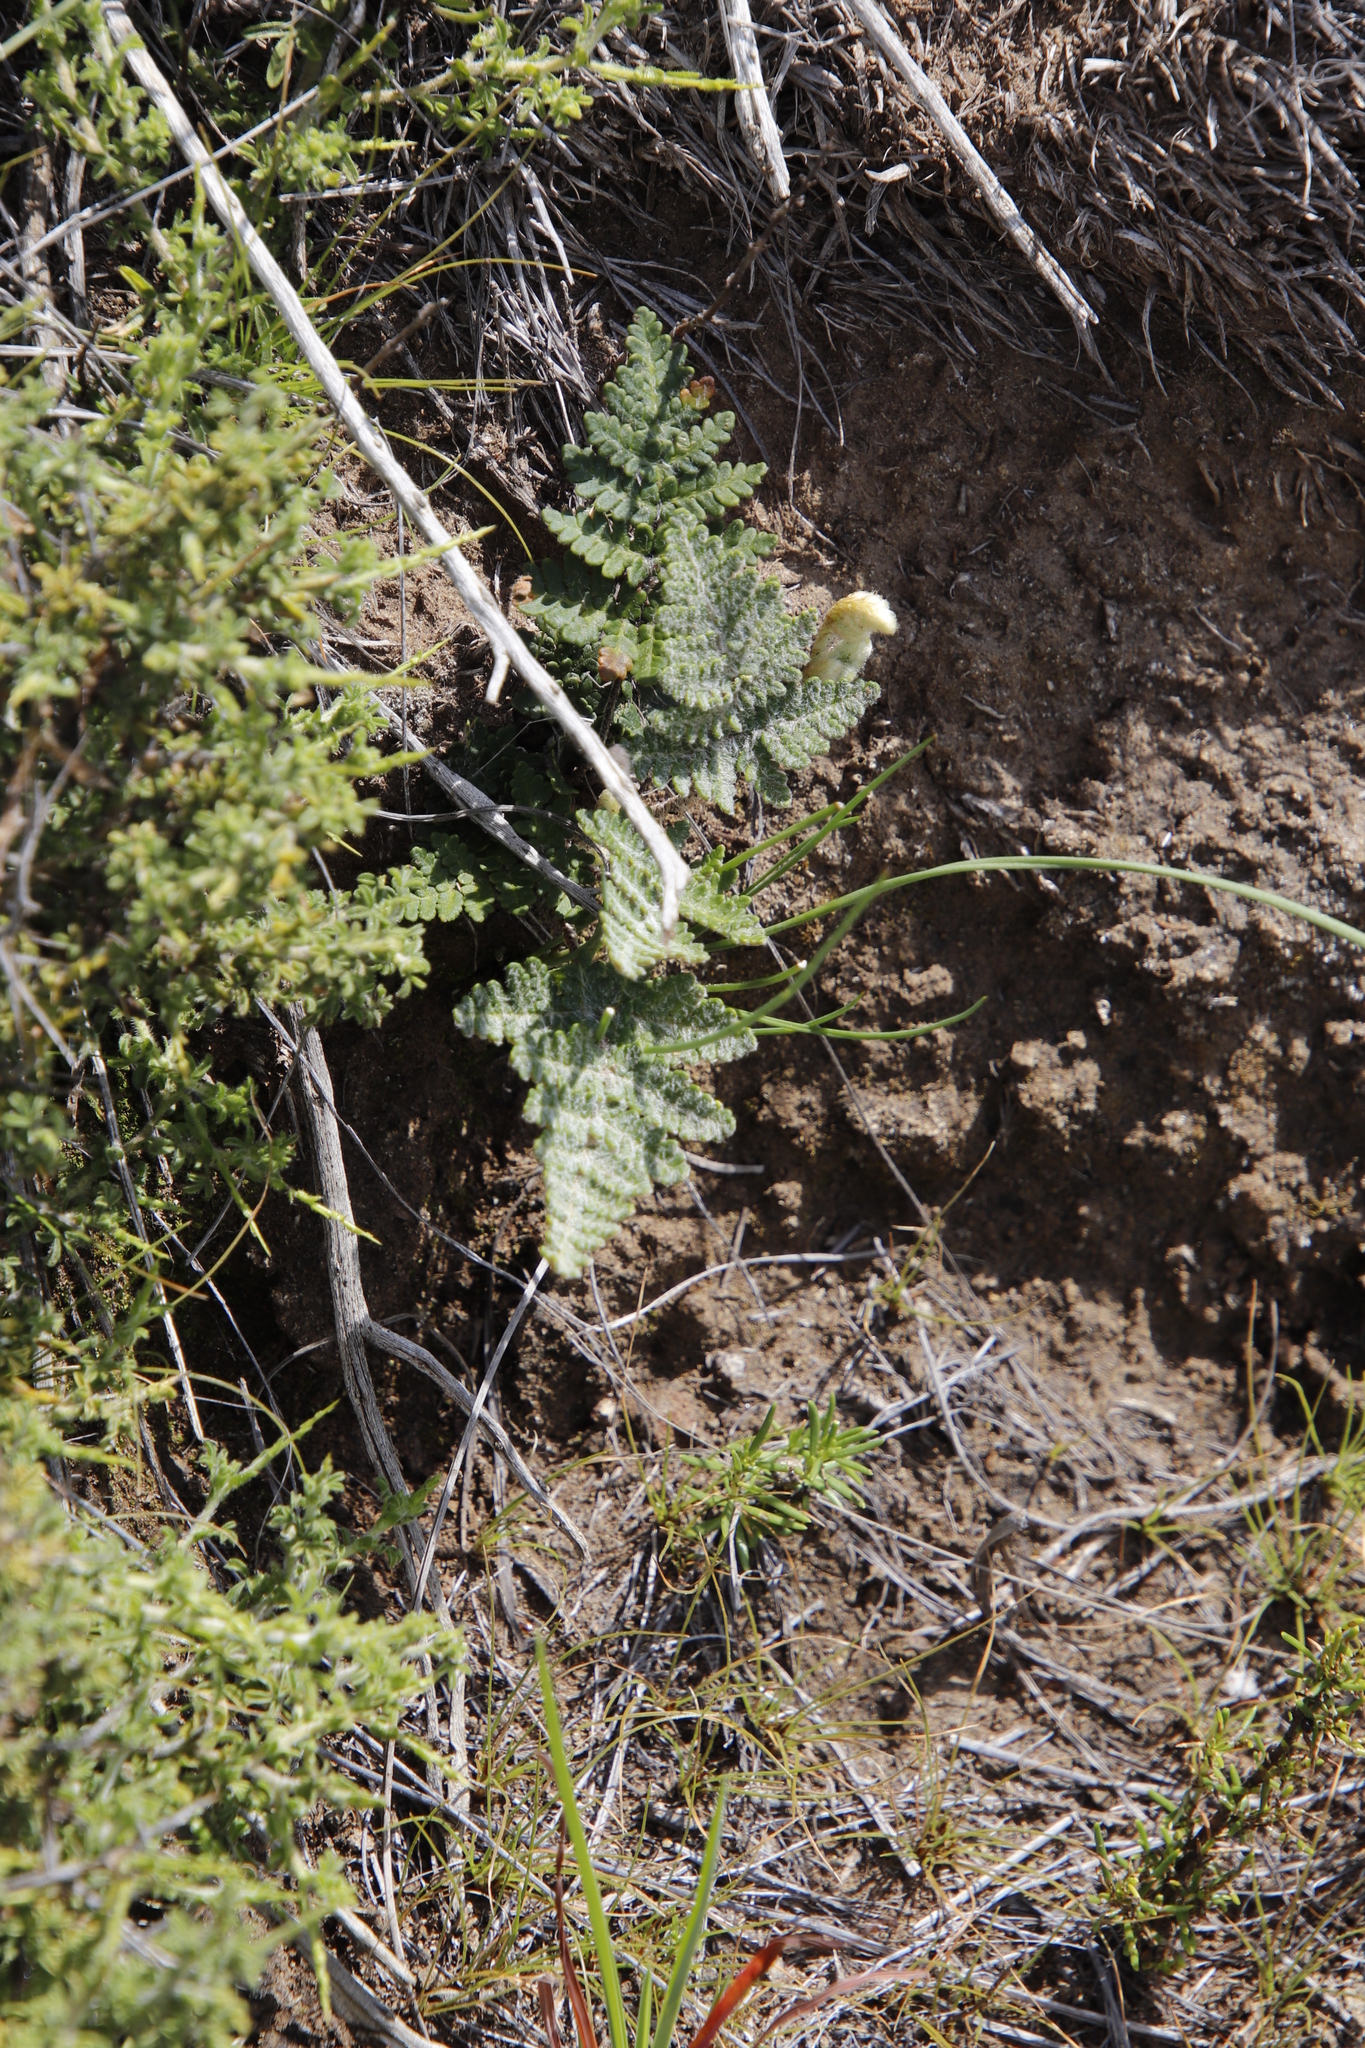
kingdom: Plantae
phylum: Tracheophyta
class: Polypodiopsida
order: Polypodiales
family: Pteridaceae
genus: Cheilanthes
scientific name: Cheilanthes eckloniana
